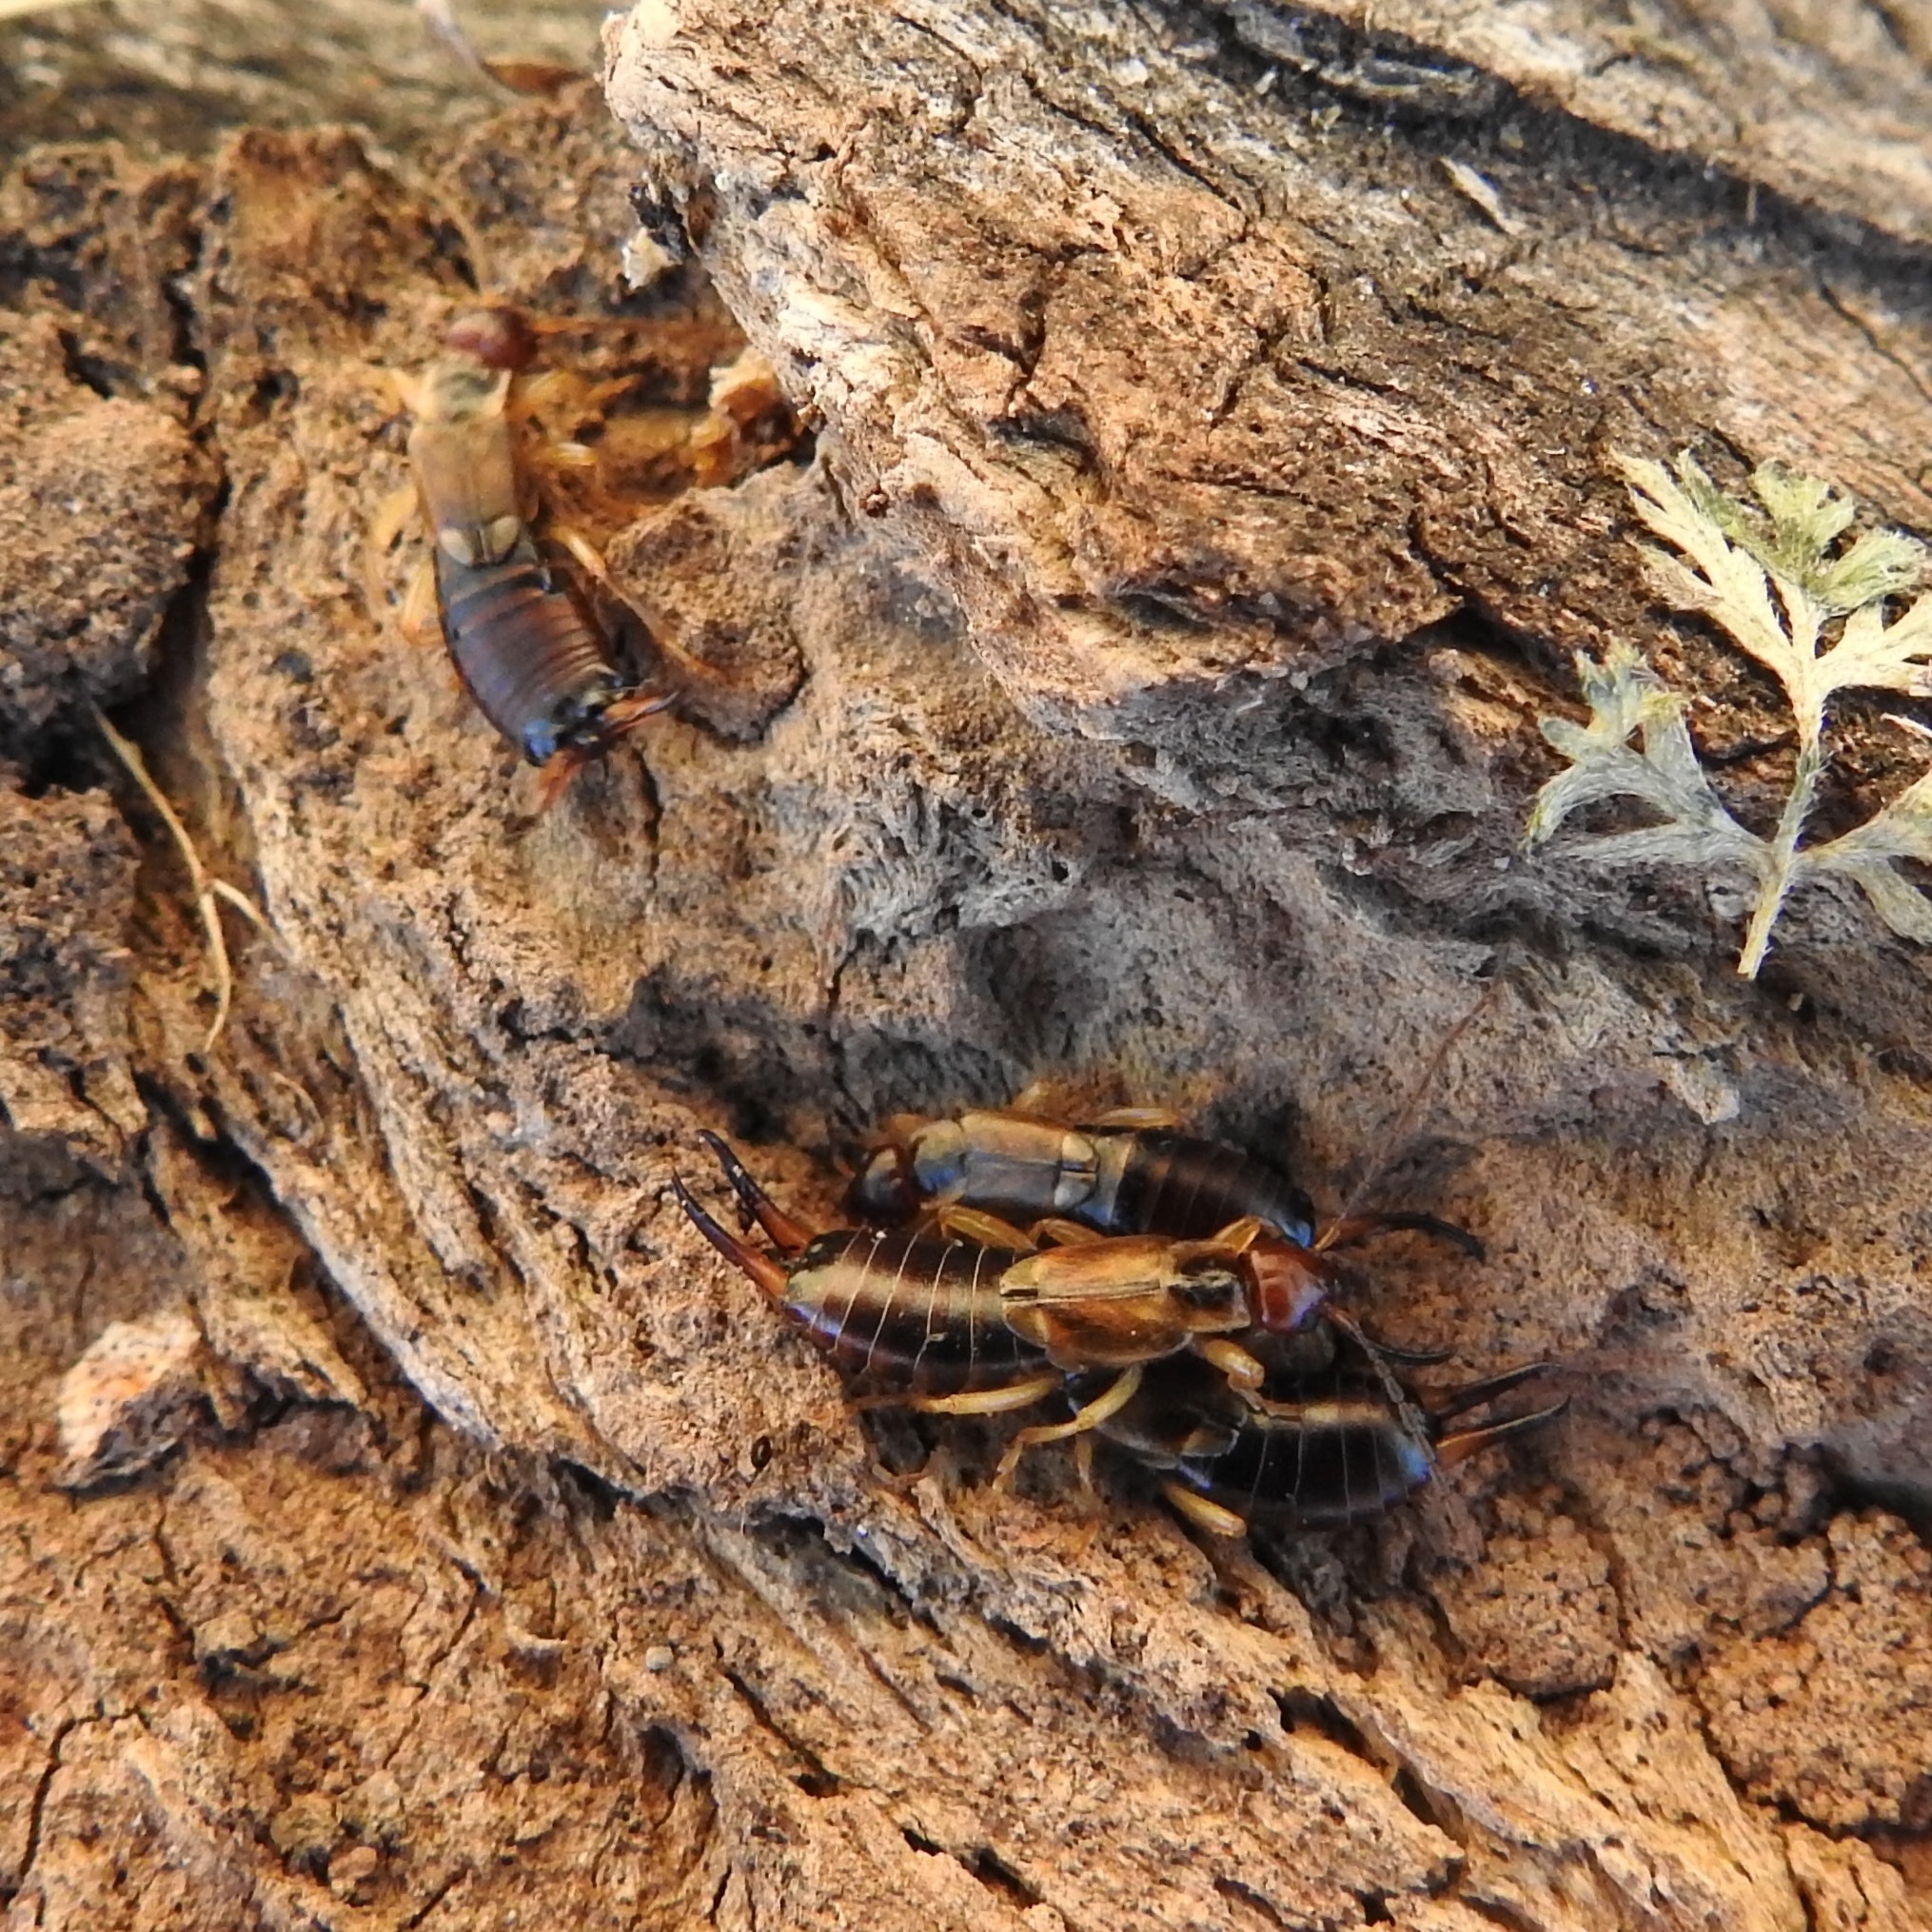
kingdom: Animalia
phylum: Arthropoda
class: Insecta
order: Dermaptera
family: Forficulidae
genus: Forficula
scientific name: Forficula dentata
